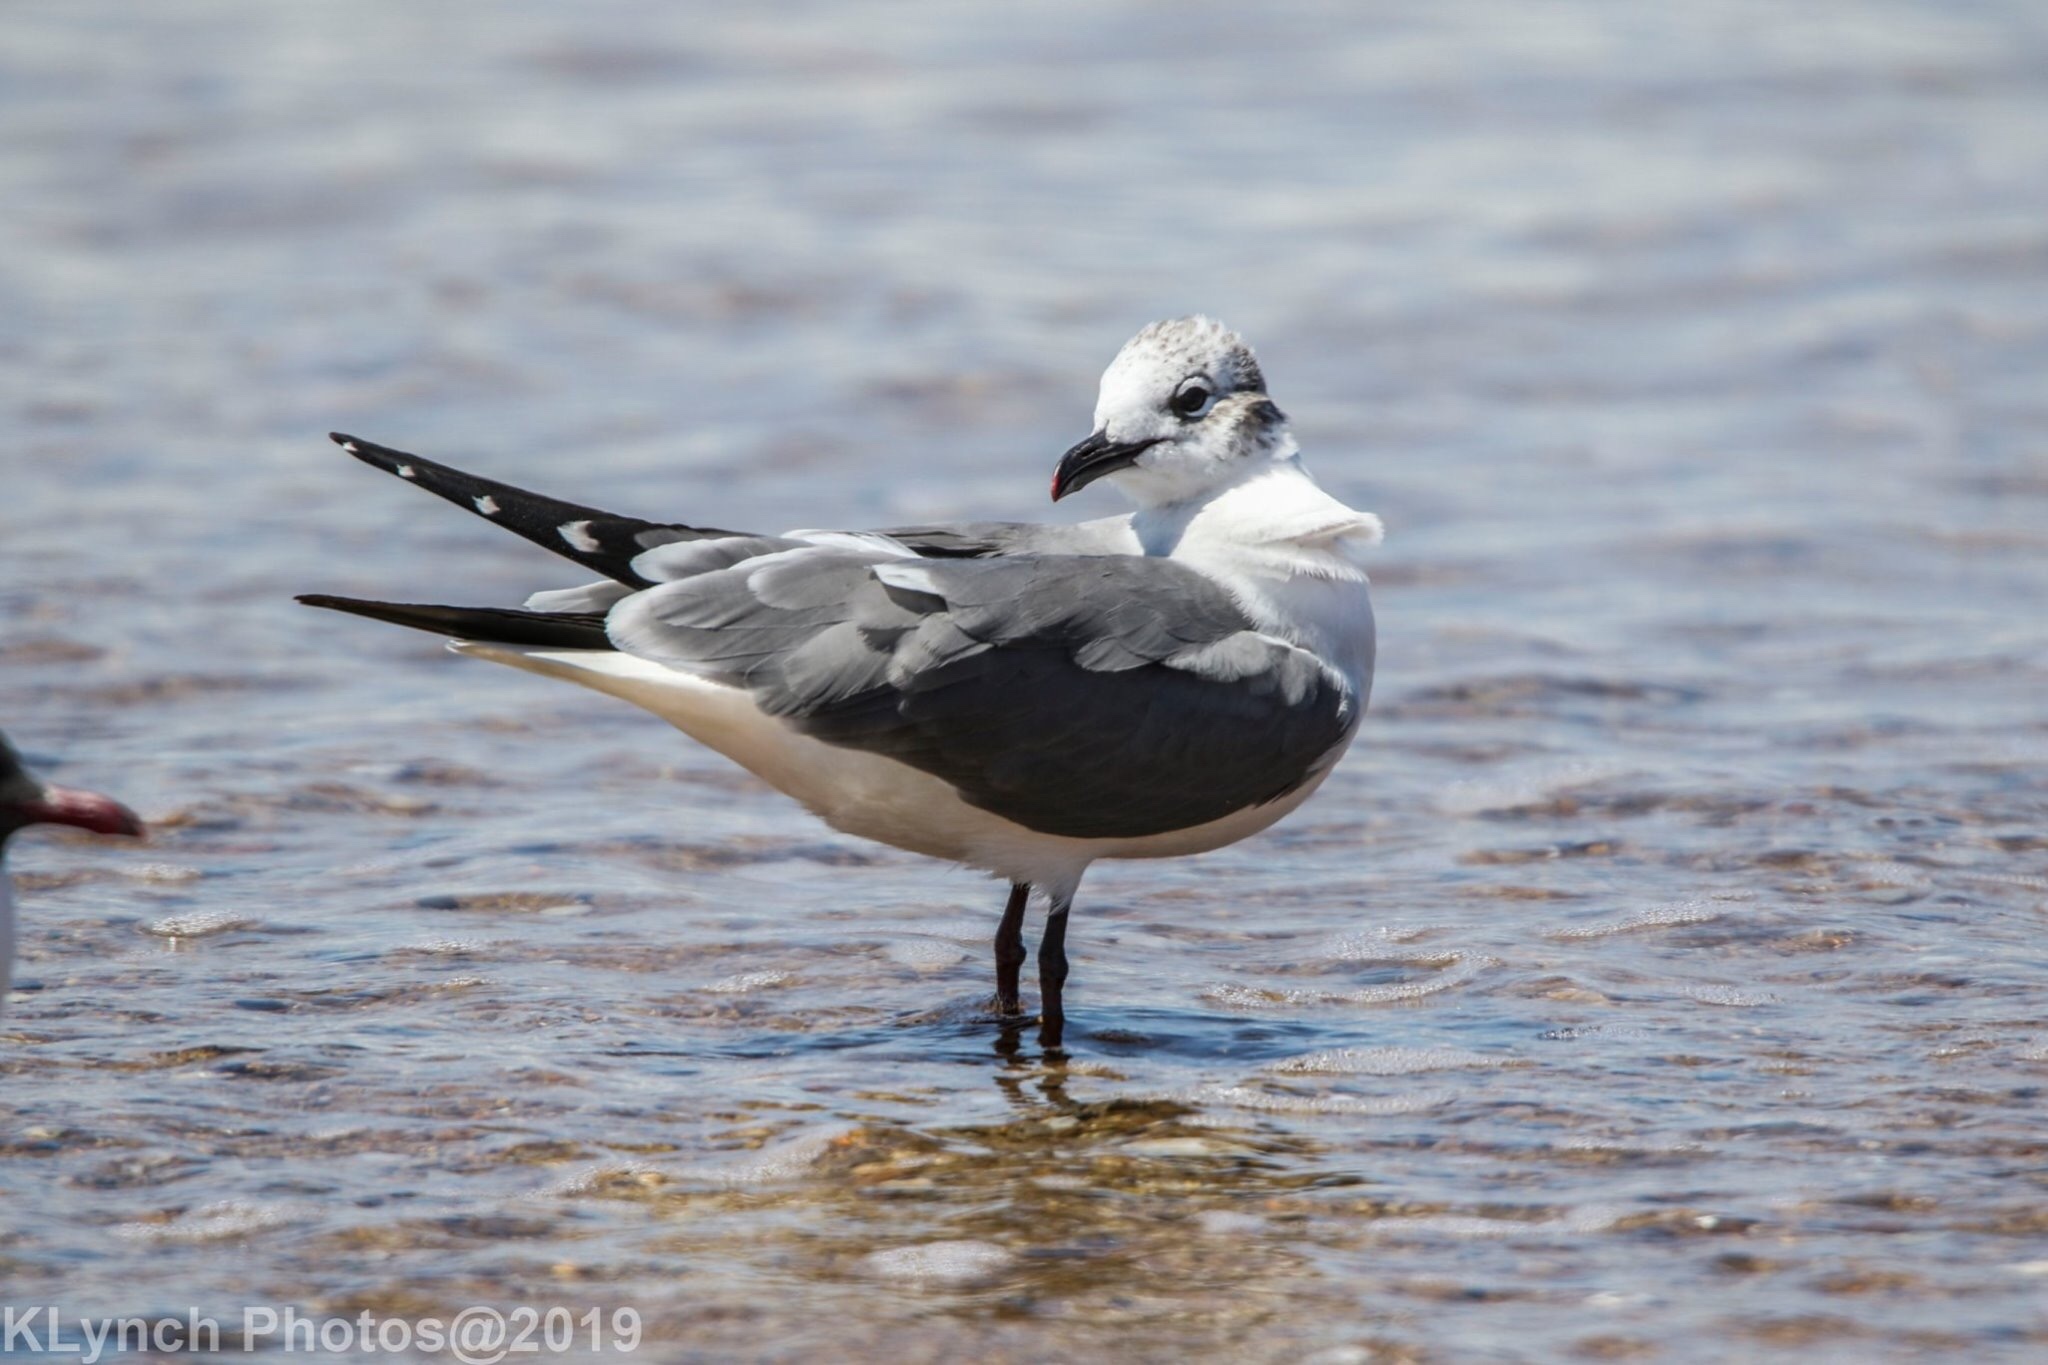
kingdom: Animalia
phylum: Chordata
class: Aves
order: Charadriiformes
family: Laridae
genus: Leucophaeus
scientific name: Leucophaeus atricilla
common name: Laughing gull
